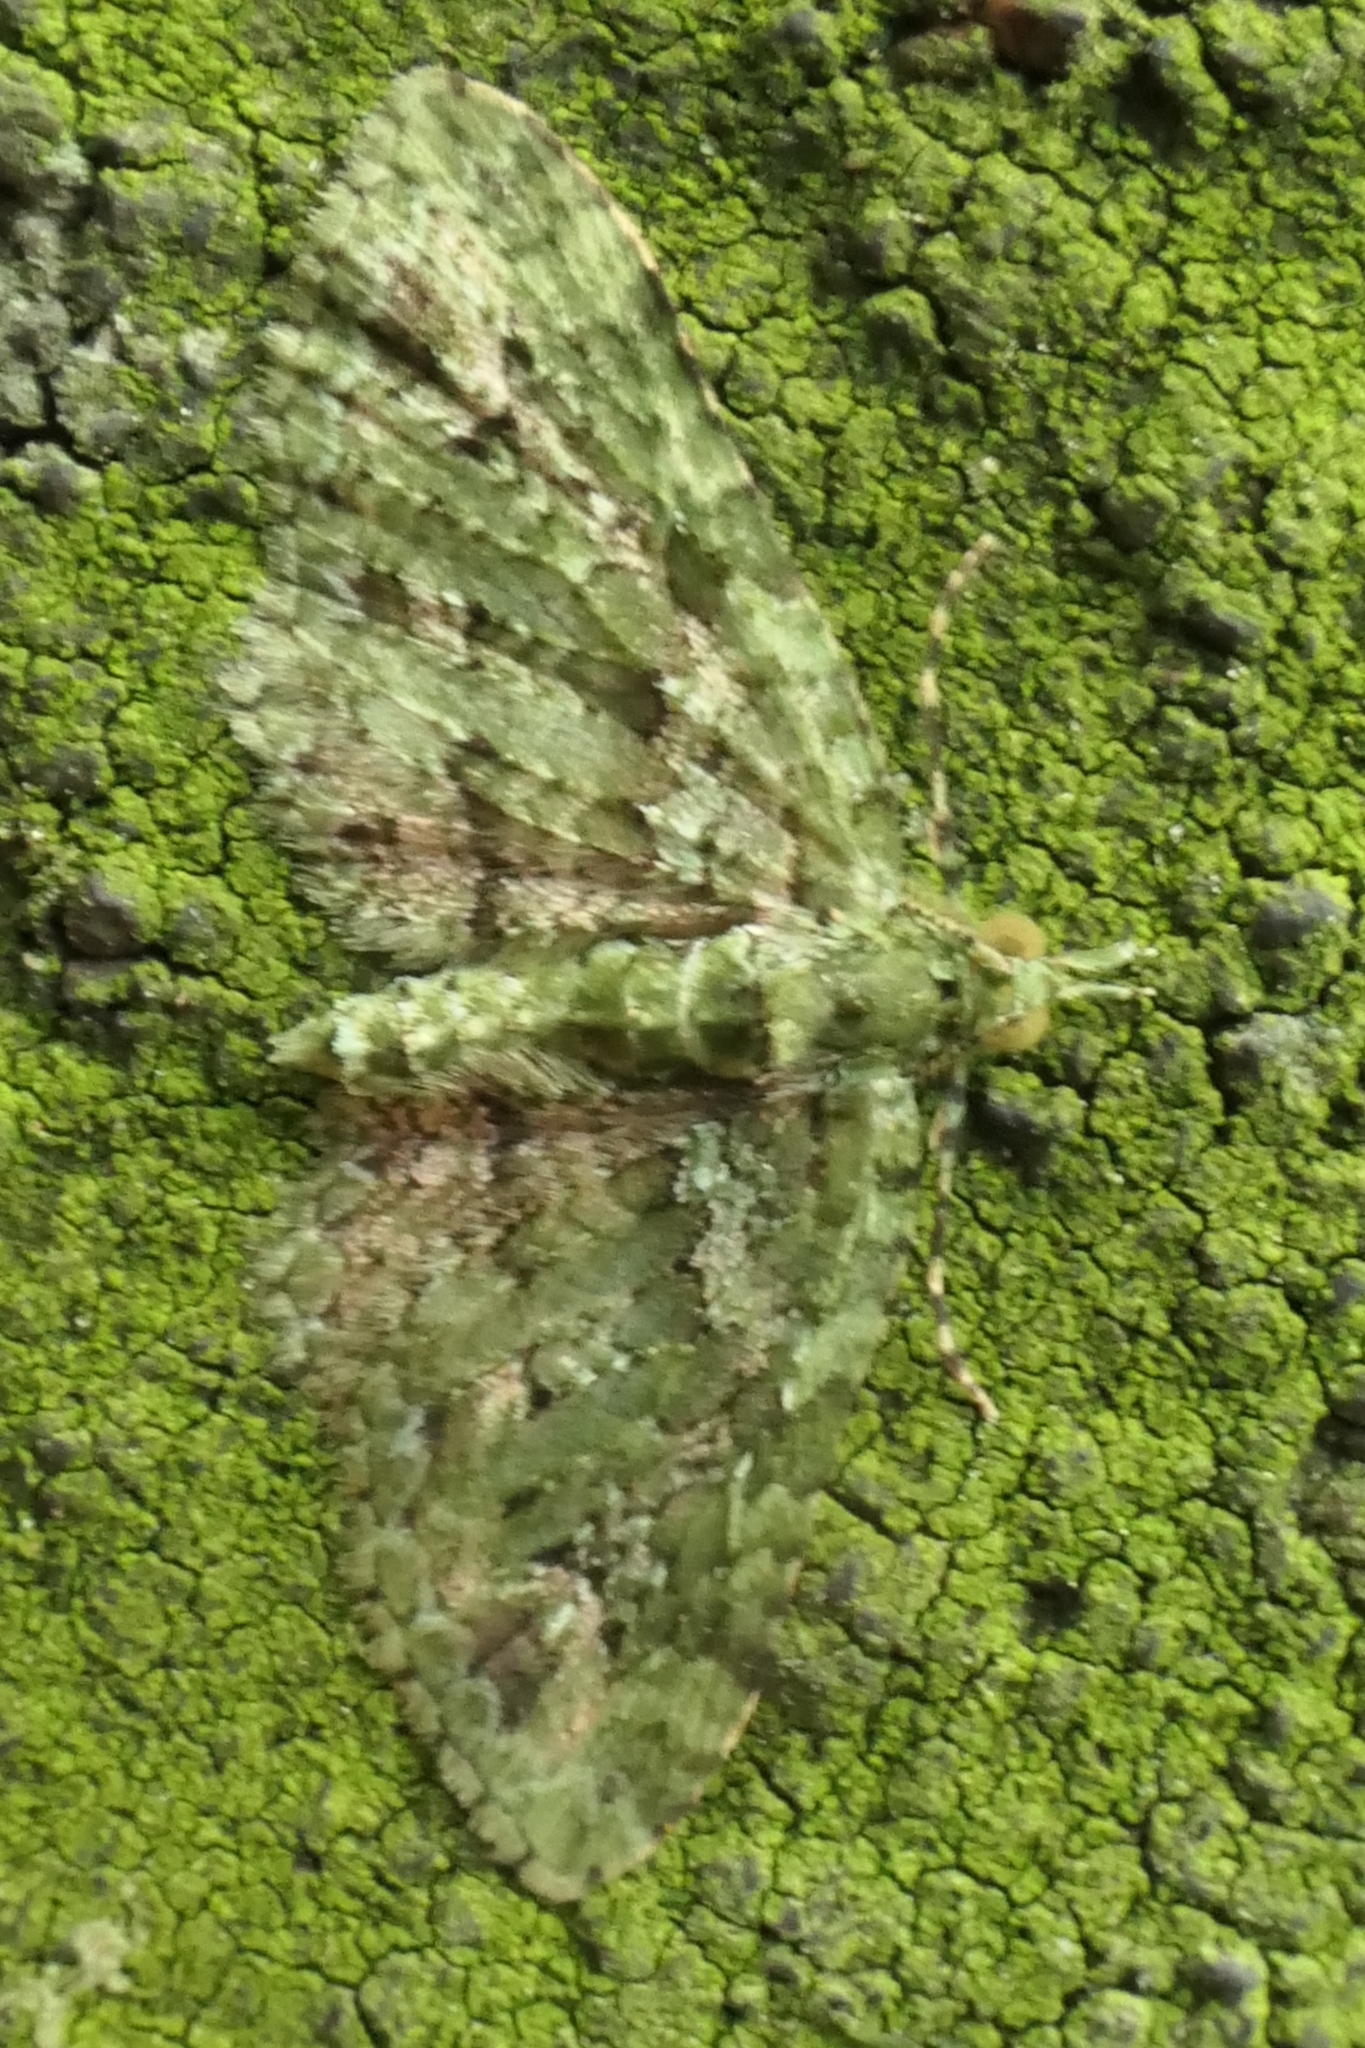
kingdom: Animalia
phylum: Arthropoda
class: Insecta
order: Lepidoptera
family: Geometridae
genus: Pasiphila
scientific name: Pasiphila muscosata
